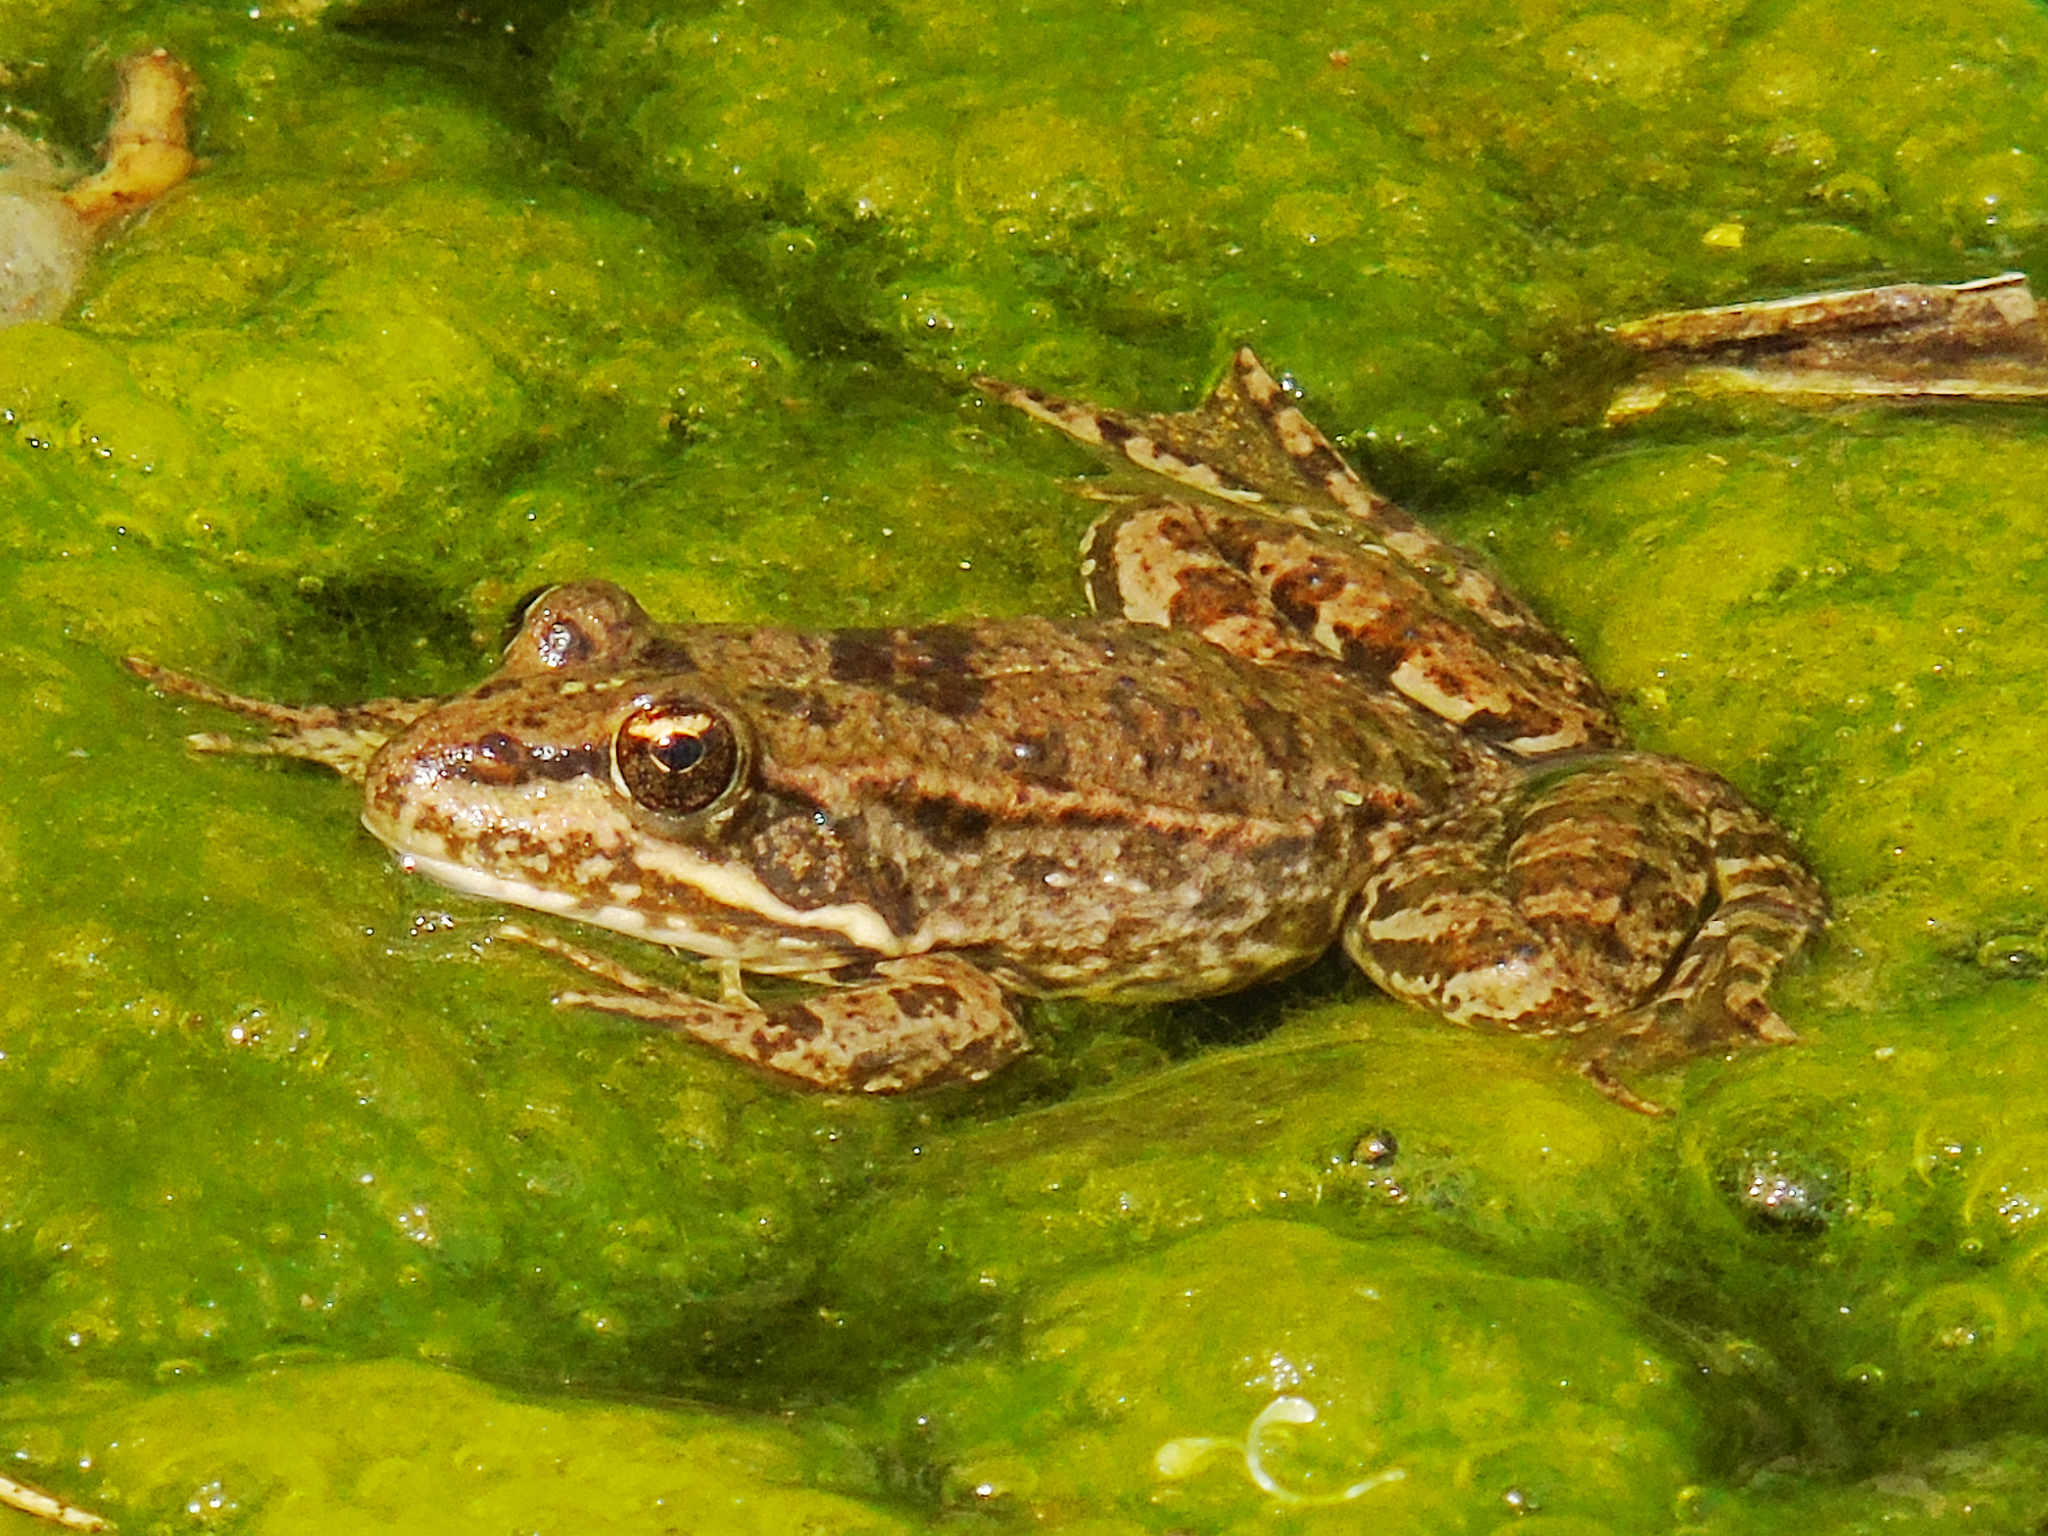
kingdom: Animalia
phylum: Chordata
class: Amphibia
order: Anura
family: Ranidae
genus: Pelophylax
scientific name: Pelophylax ridibundus
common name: Marsh frog
